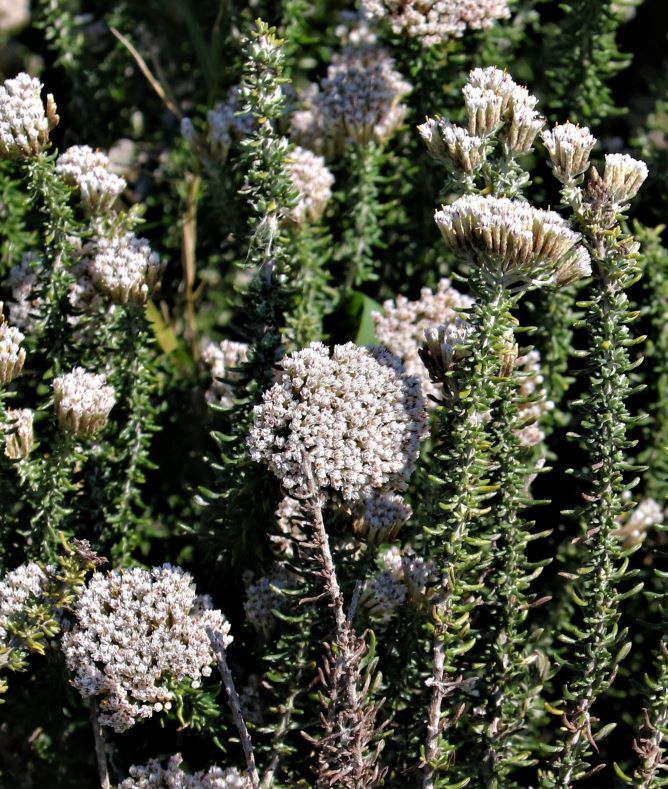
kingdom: Plantae
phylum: Tracheophyta
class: Magnoliopsida
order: Asterales
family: Asteraceae
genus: Metalasia
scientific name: Metalasia muricata
